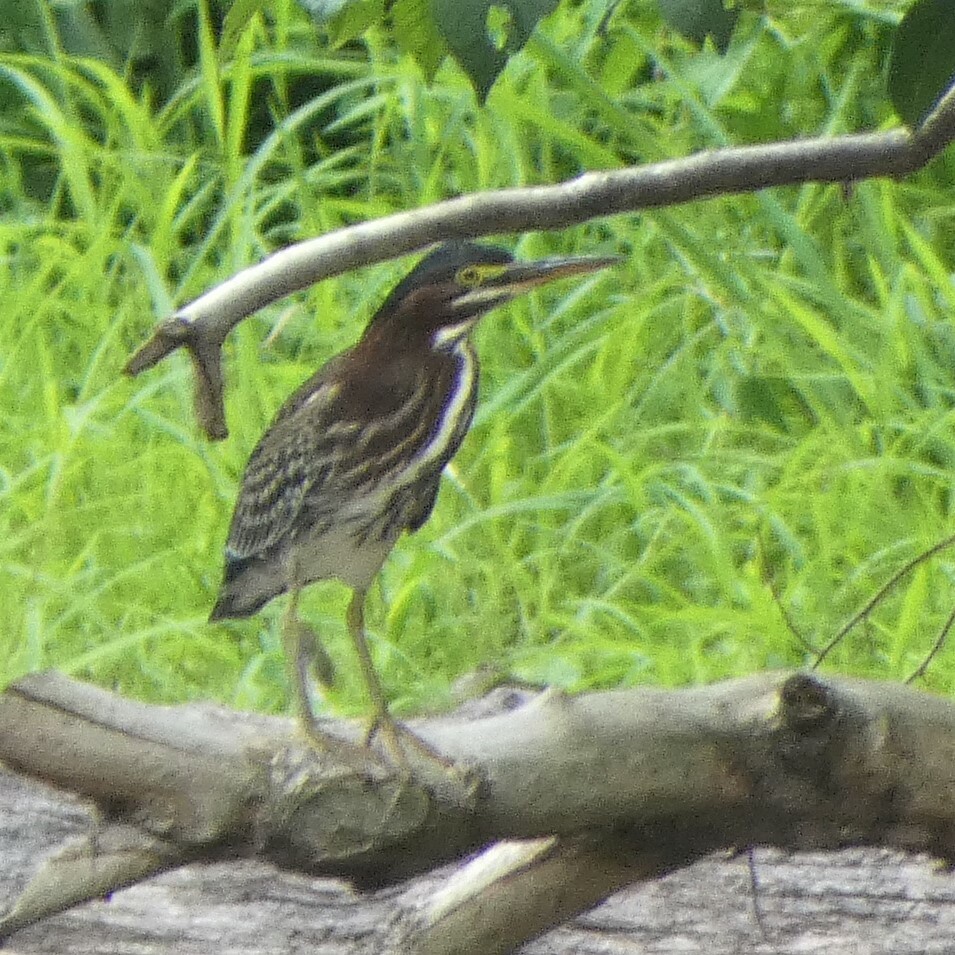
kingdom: Animalia
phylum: Chordata
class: Aves
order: Pelecaniformes
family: Ardeidae
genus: Butorides
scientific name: Butorides virescens
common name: Green heron
